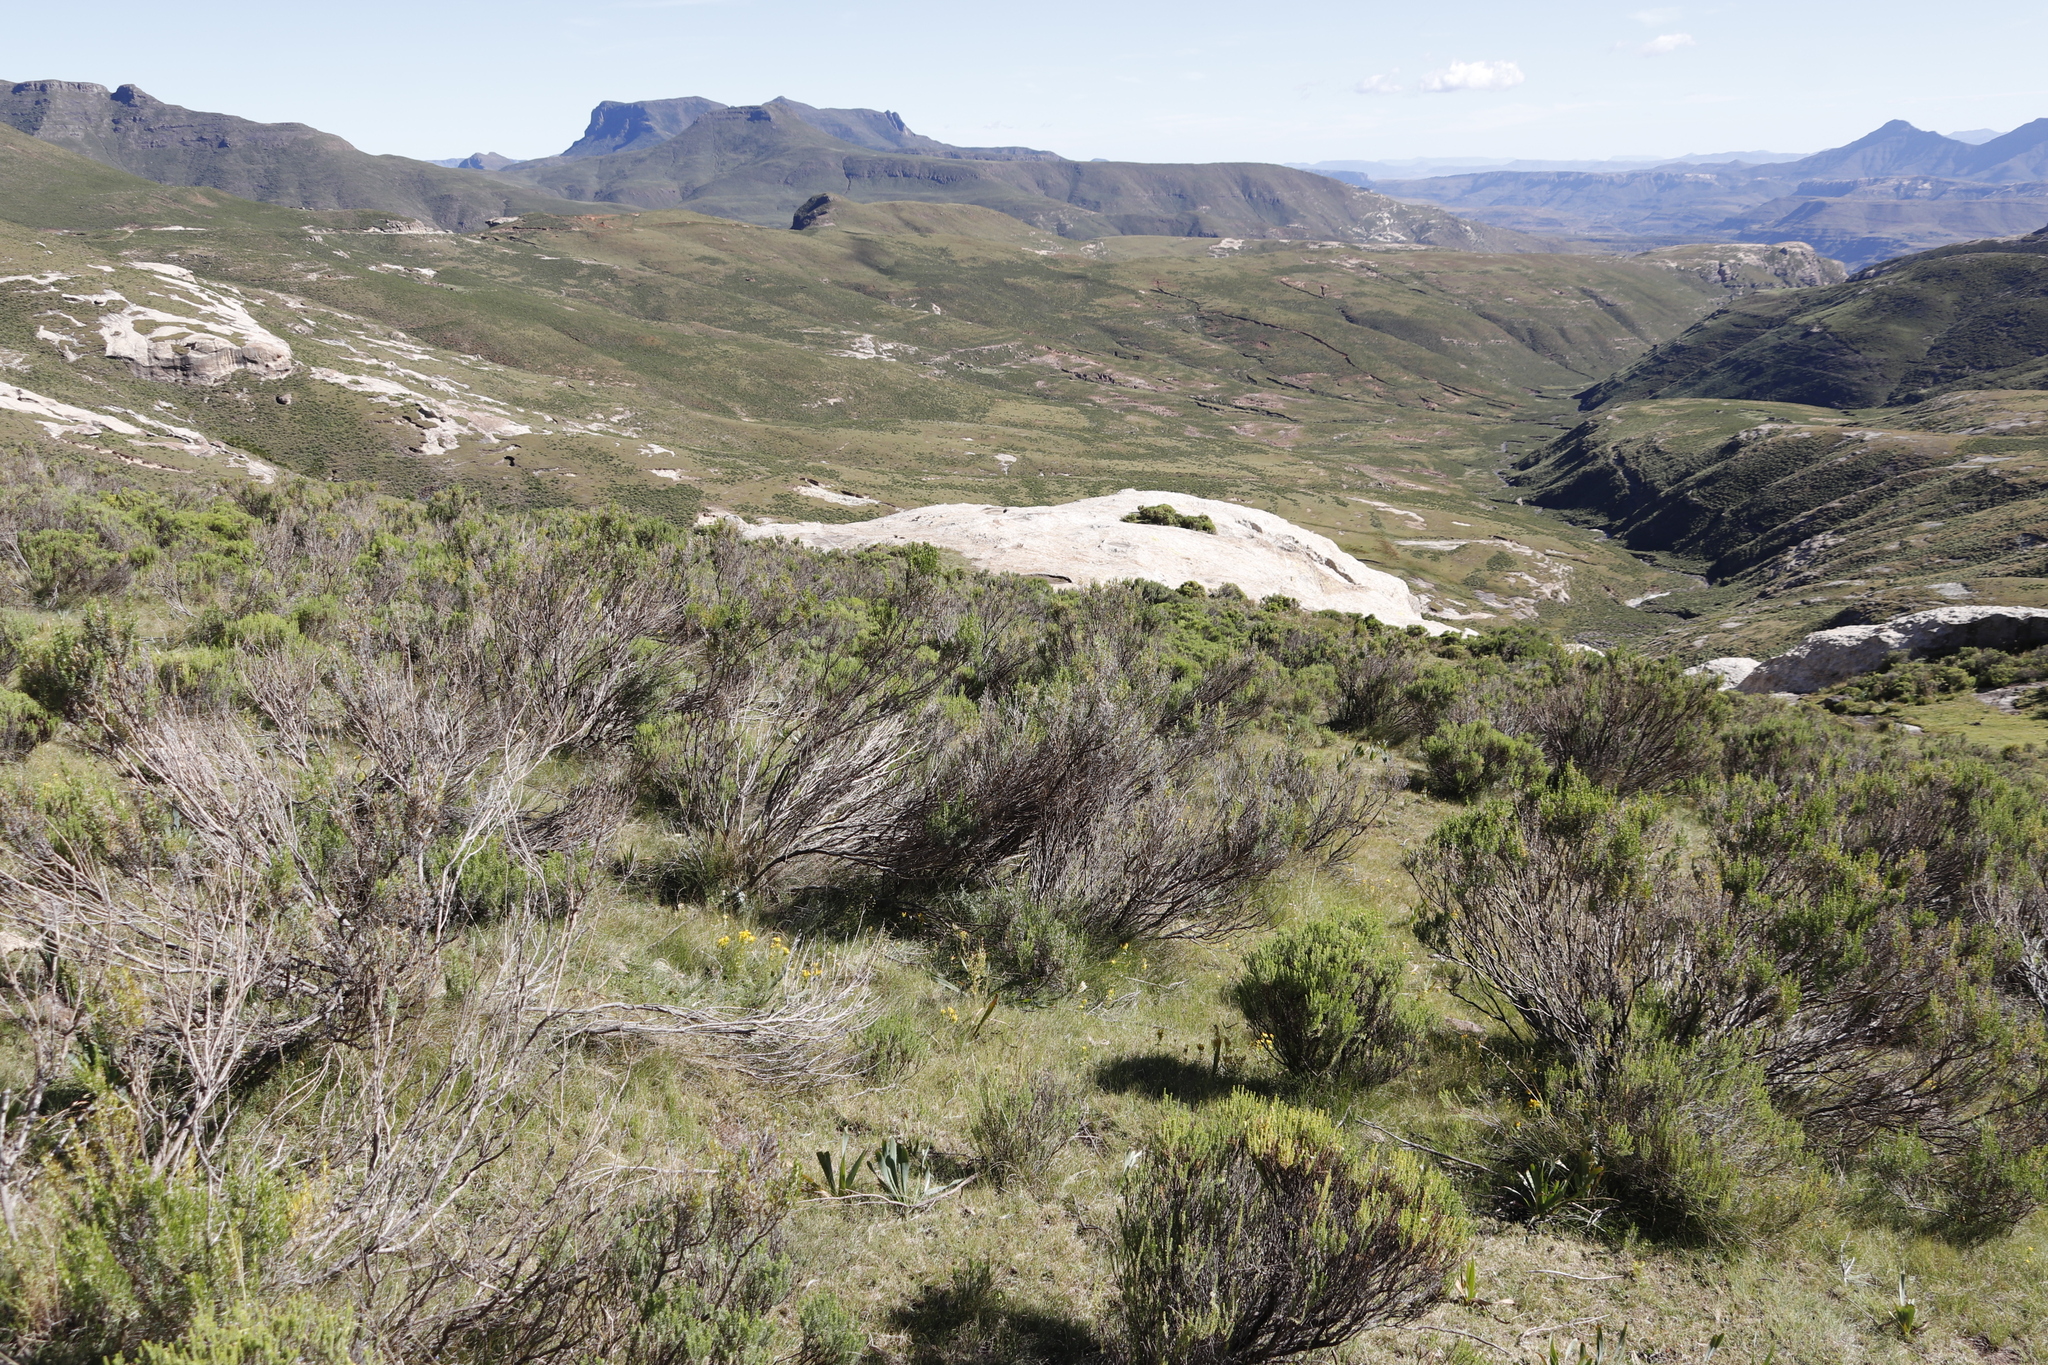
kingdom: Plantae
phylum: Tracheophyta
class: Magnoliopsida
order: Asterales
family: Asteraceae
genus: Dicerothamnus
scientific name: Dicerothamnus rhinocerotis
